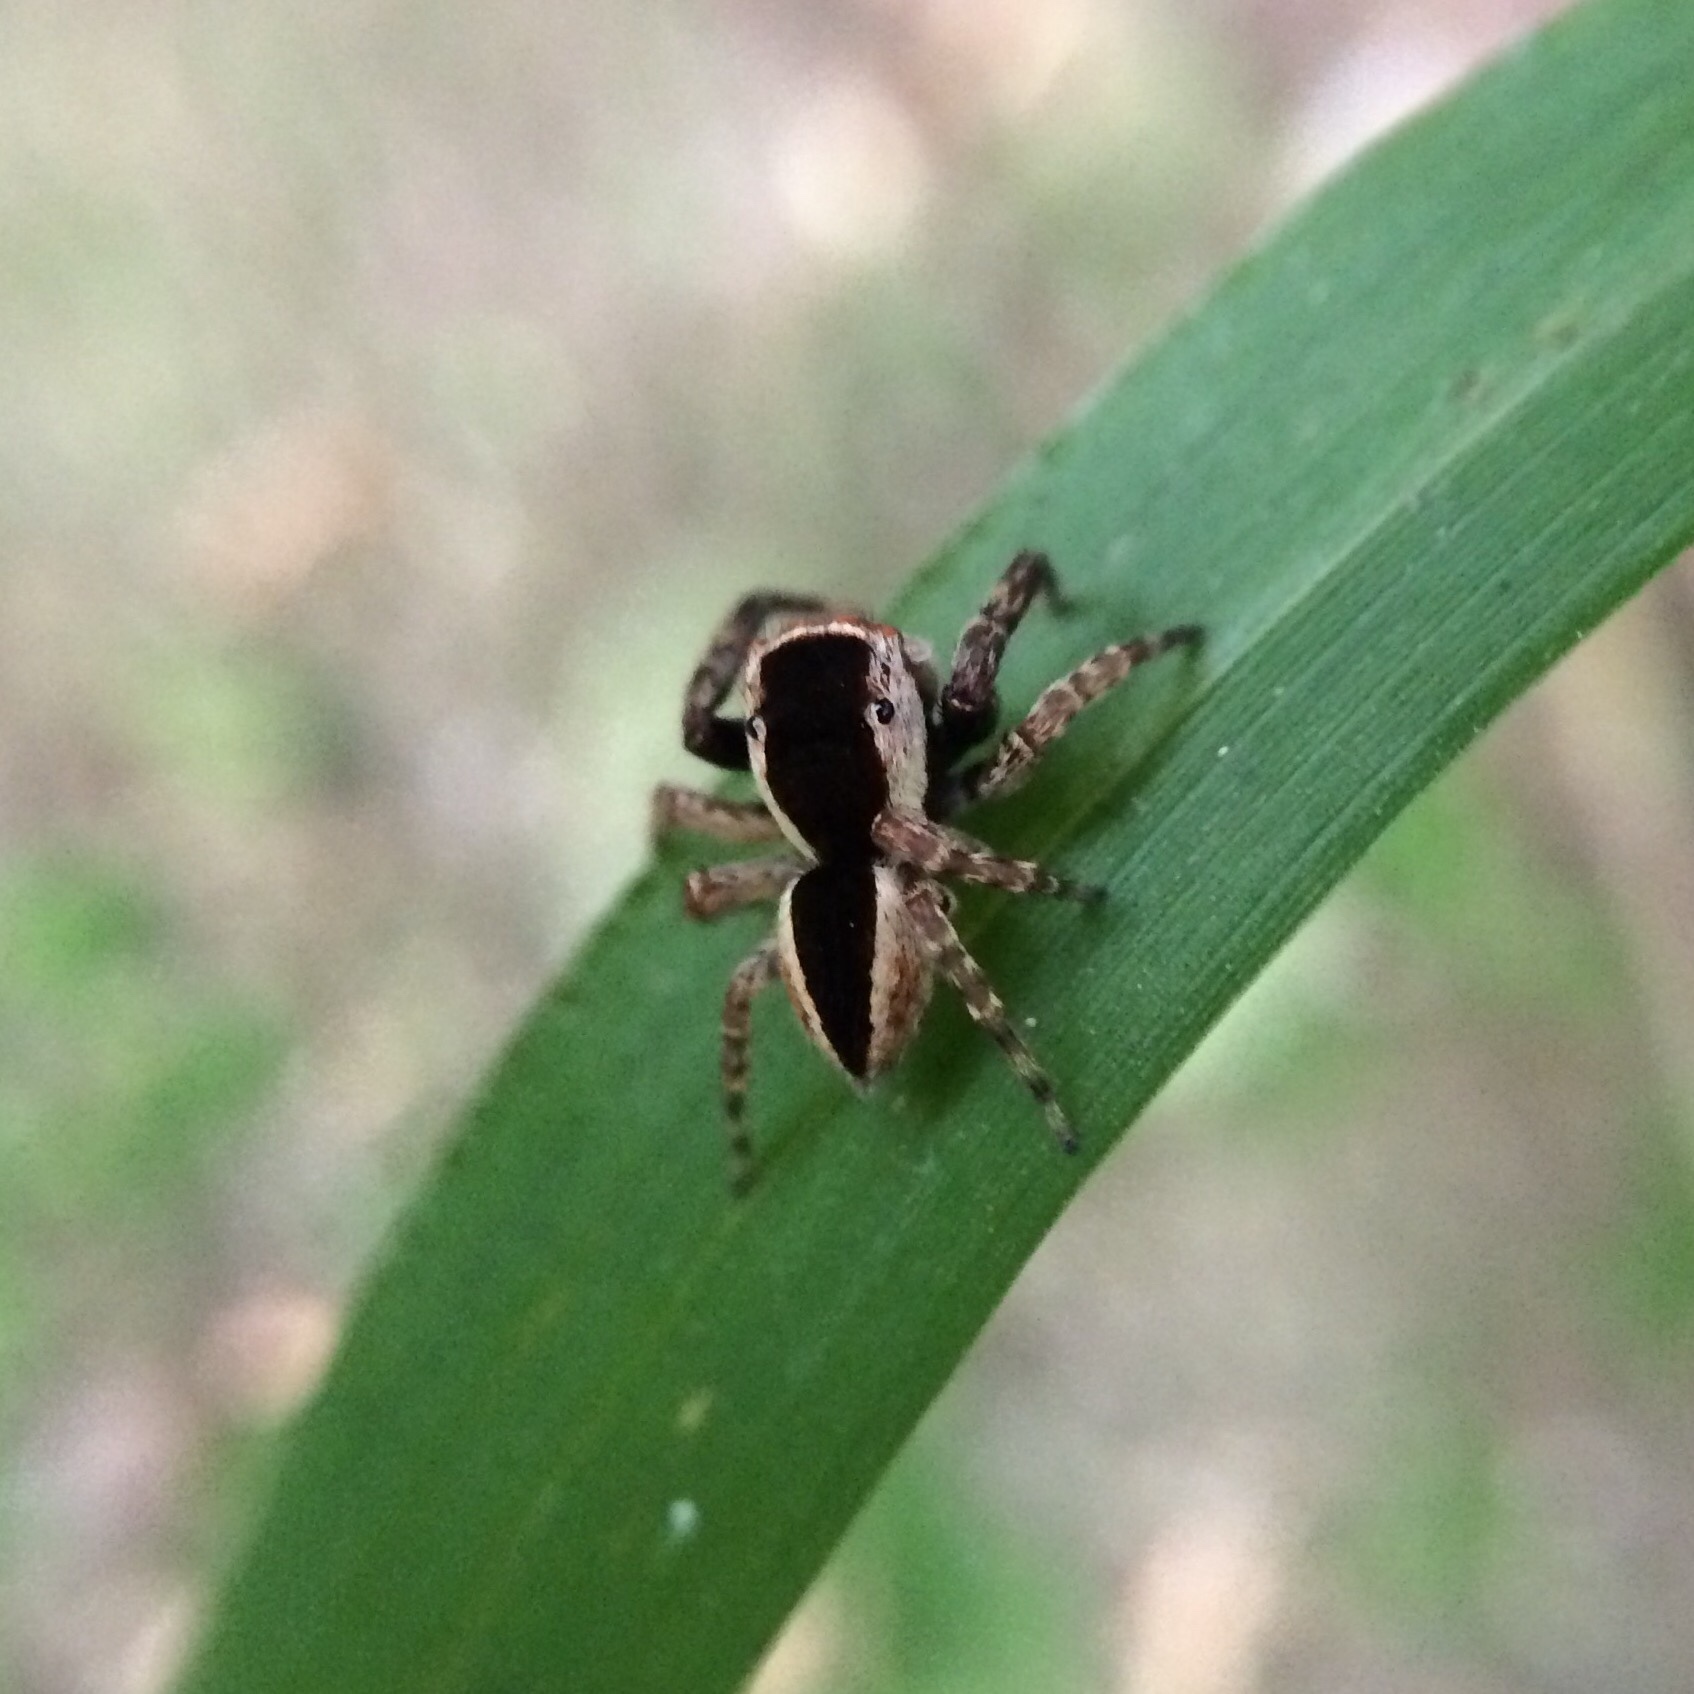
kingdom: Animalia
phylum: Arthropoda
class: Arachnida
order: Araneae
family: Salticidae
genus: Thyenula
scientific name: Thyenula leighi
